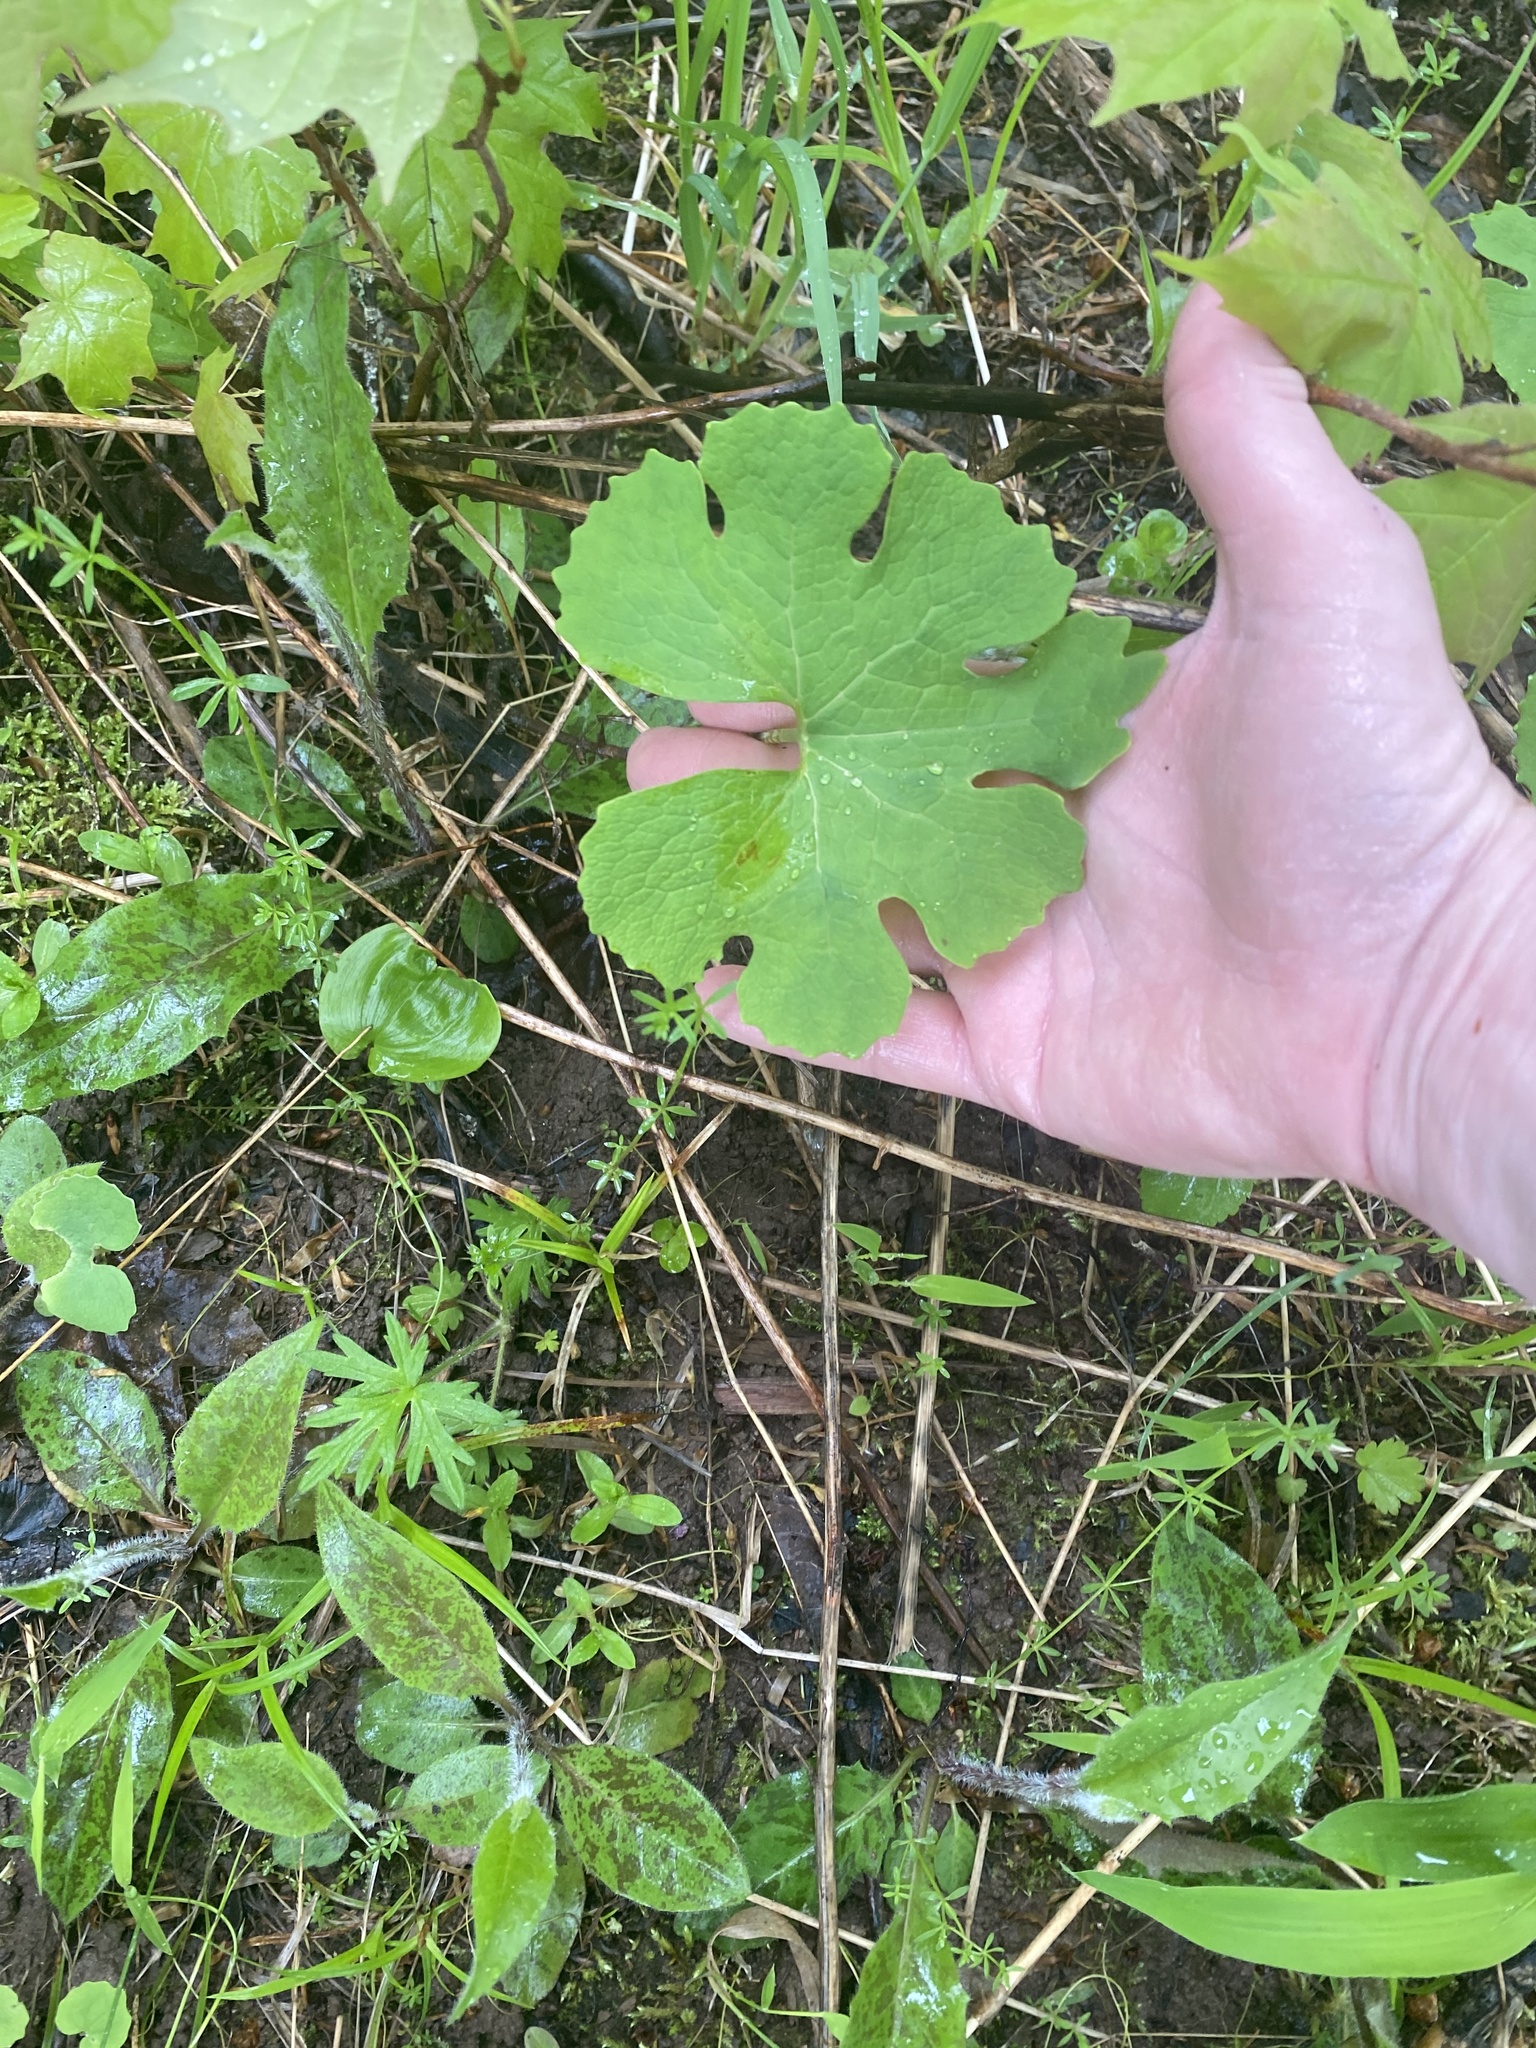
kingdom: Plantae
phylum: Tracheophyta
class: Magnoliopsida
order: Ranunculales
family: Papaveraceae
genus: Sanguinaria
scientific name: Sanguinaria canadensis
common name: Bloodroot
